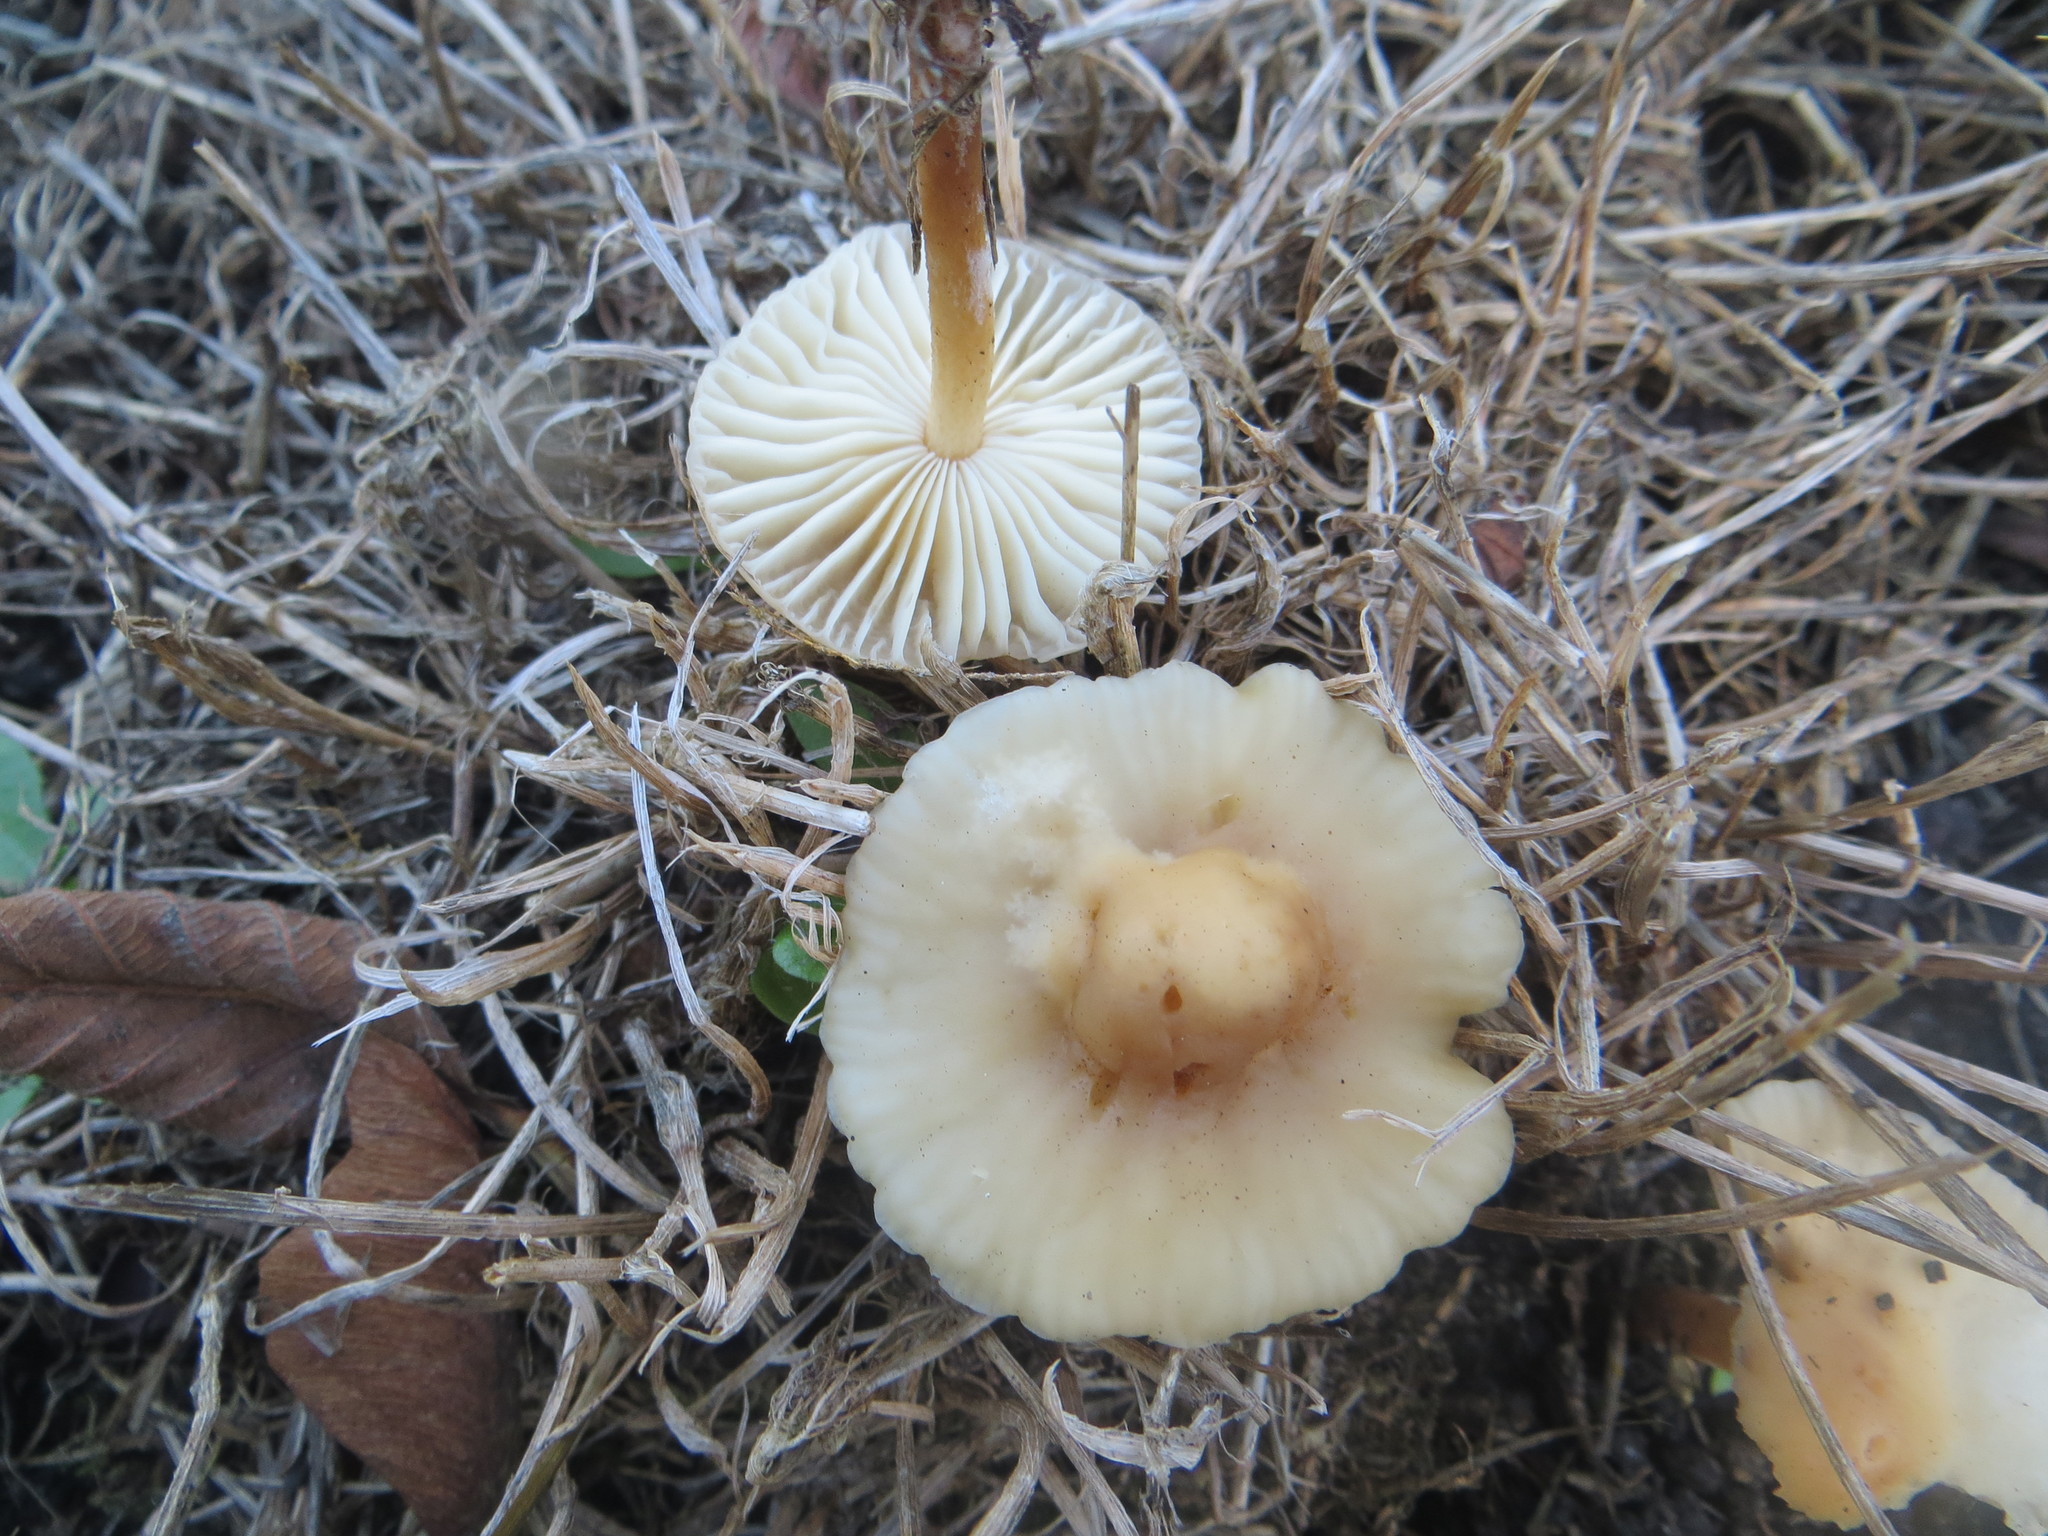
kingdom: Fungi
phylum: Basidiomycota
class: Agaricomycetes
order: Agaricales
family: Marasmiaceae
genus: Marasmius
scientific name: Marasmius oreades
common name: Fairy ring champignon
